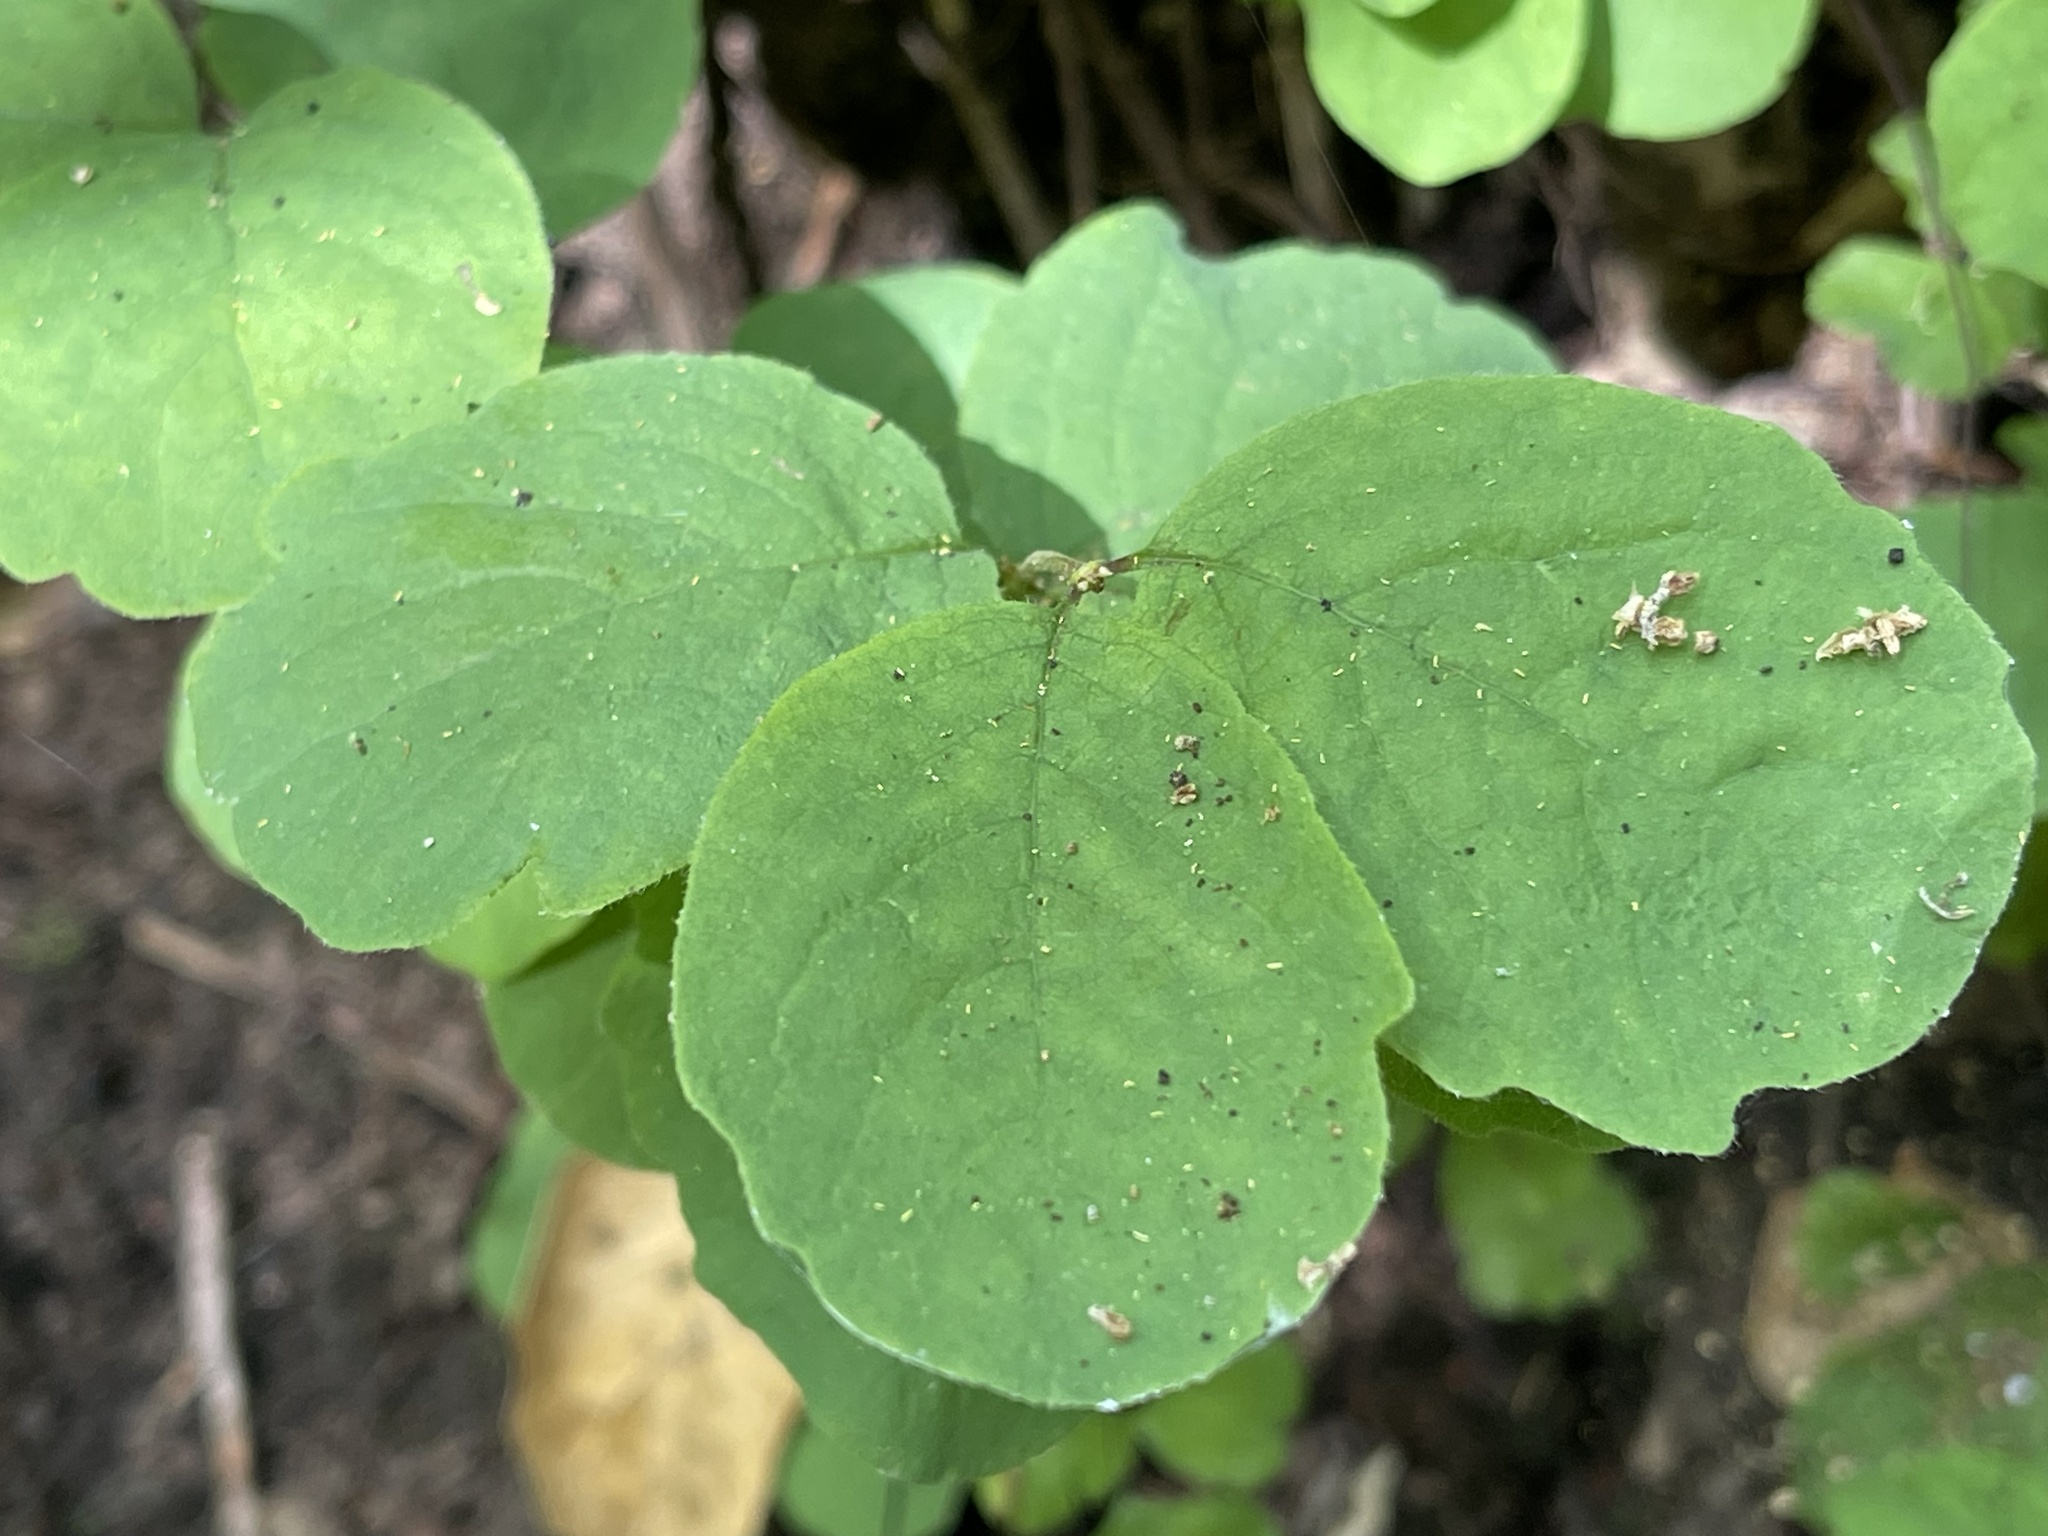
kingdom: Plantae
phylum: Tracheophyta
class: Magnoliopsida
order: Dipsacales
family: Caprifoliaceae
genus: Symphoricarpos
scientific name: Symphoricarpos mollis
